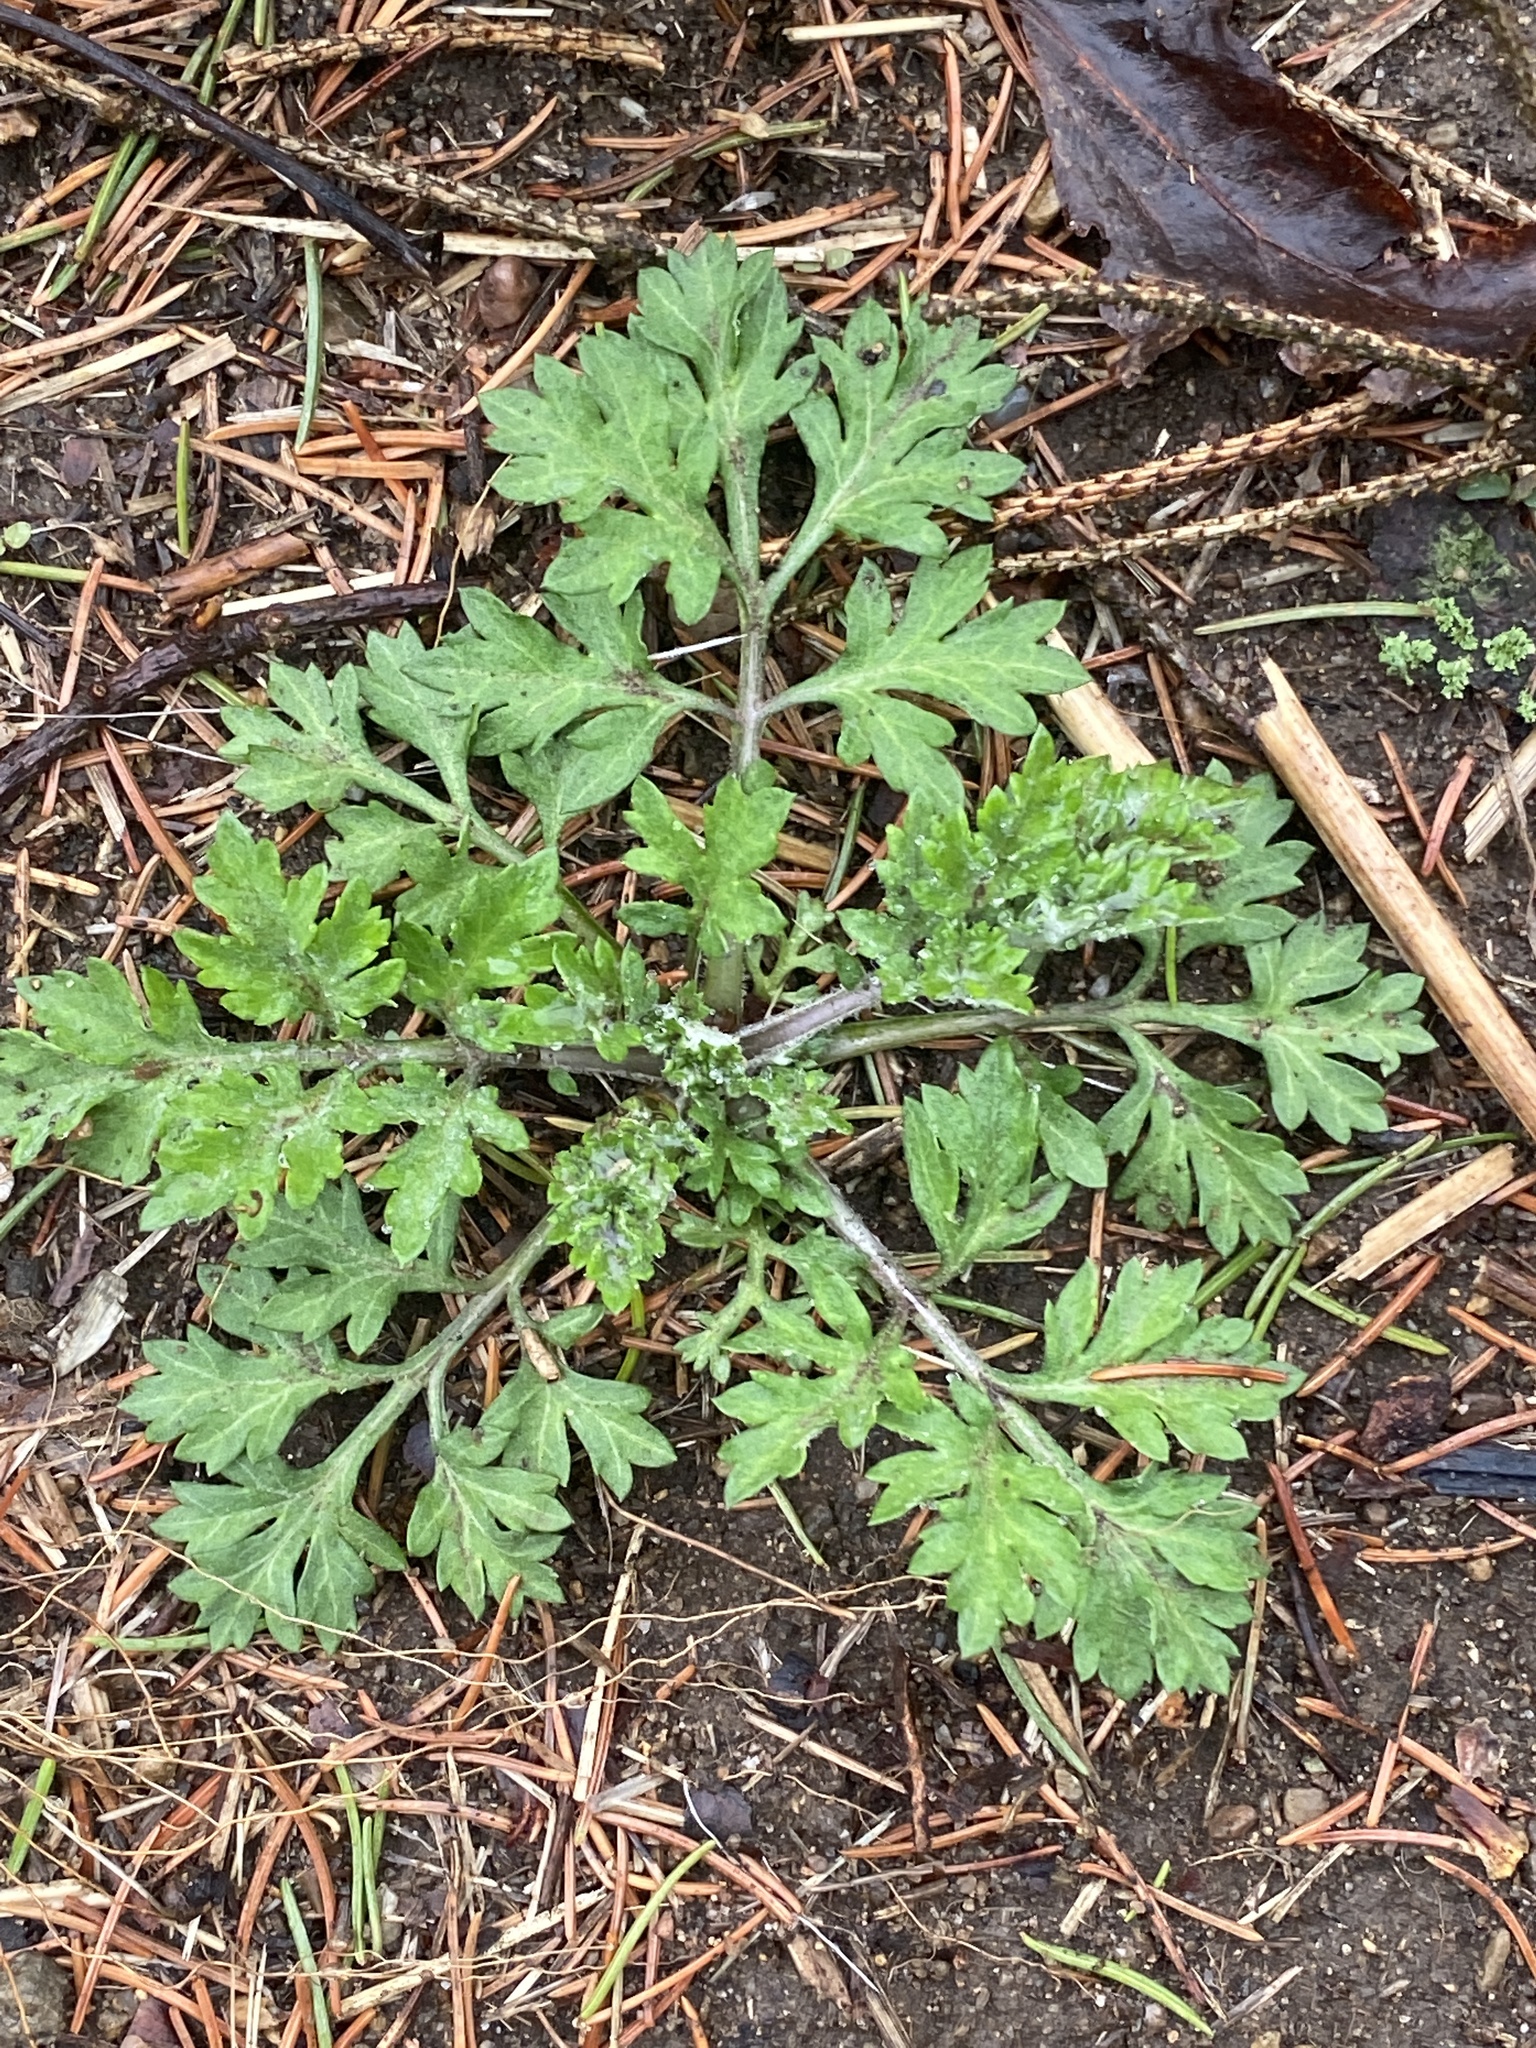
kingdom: Plantae
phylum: Tracheophyta
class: Magnoliopsida
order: Asterales
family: Asteraceae
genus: Artemisia
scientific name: Artemisia vulgaris
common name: Mugwort
